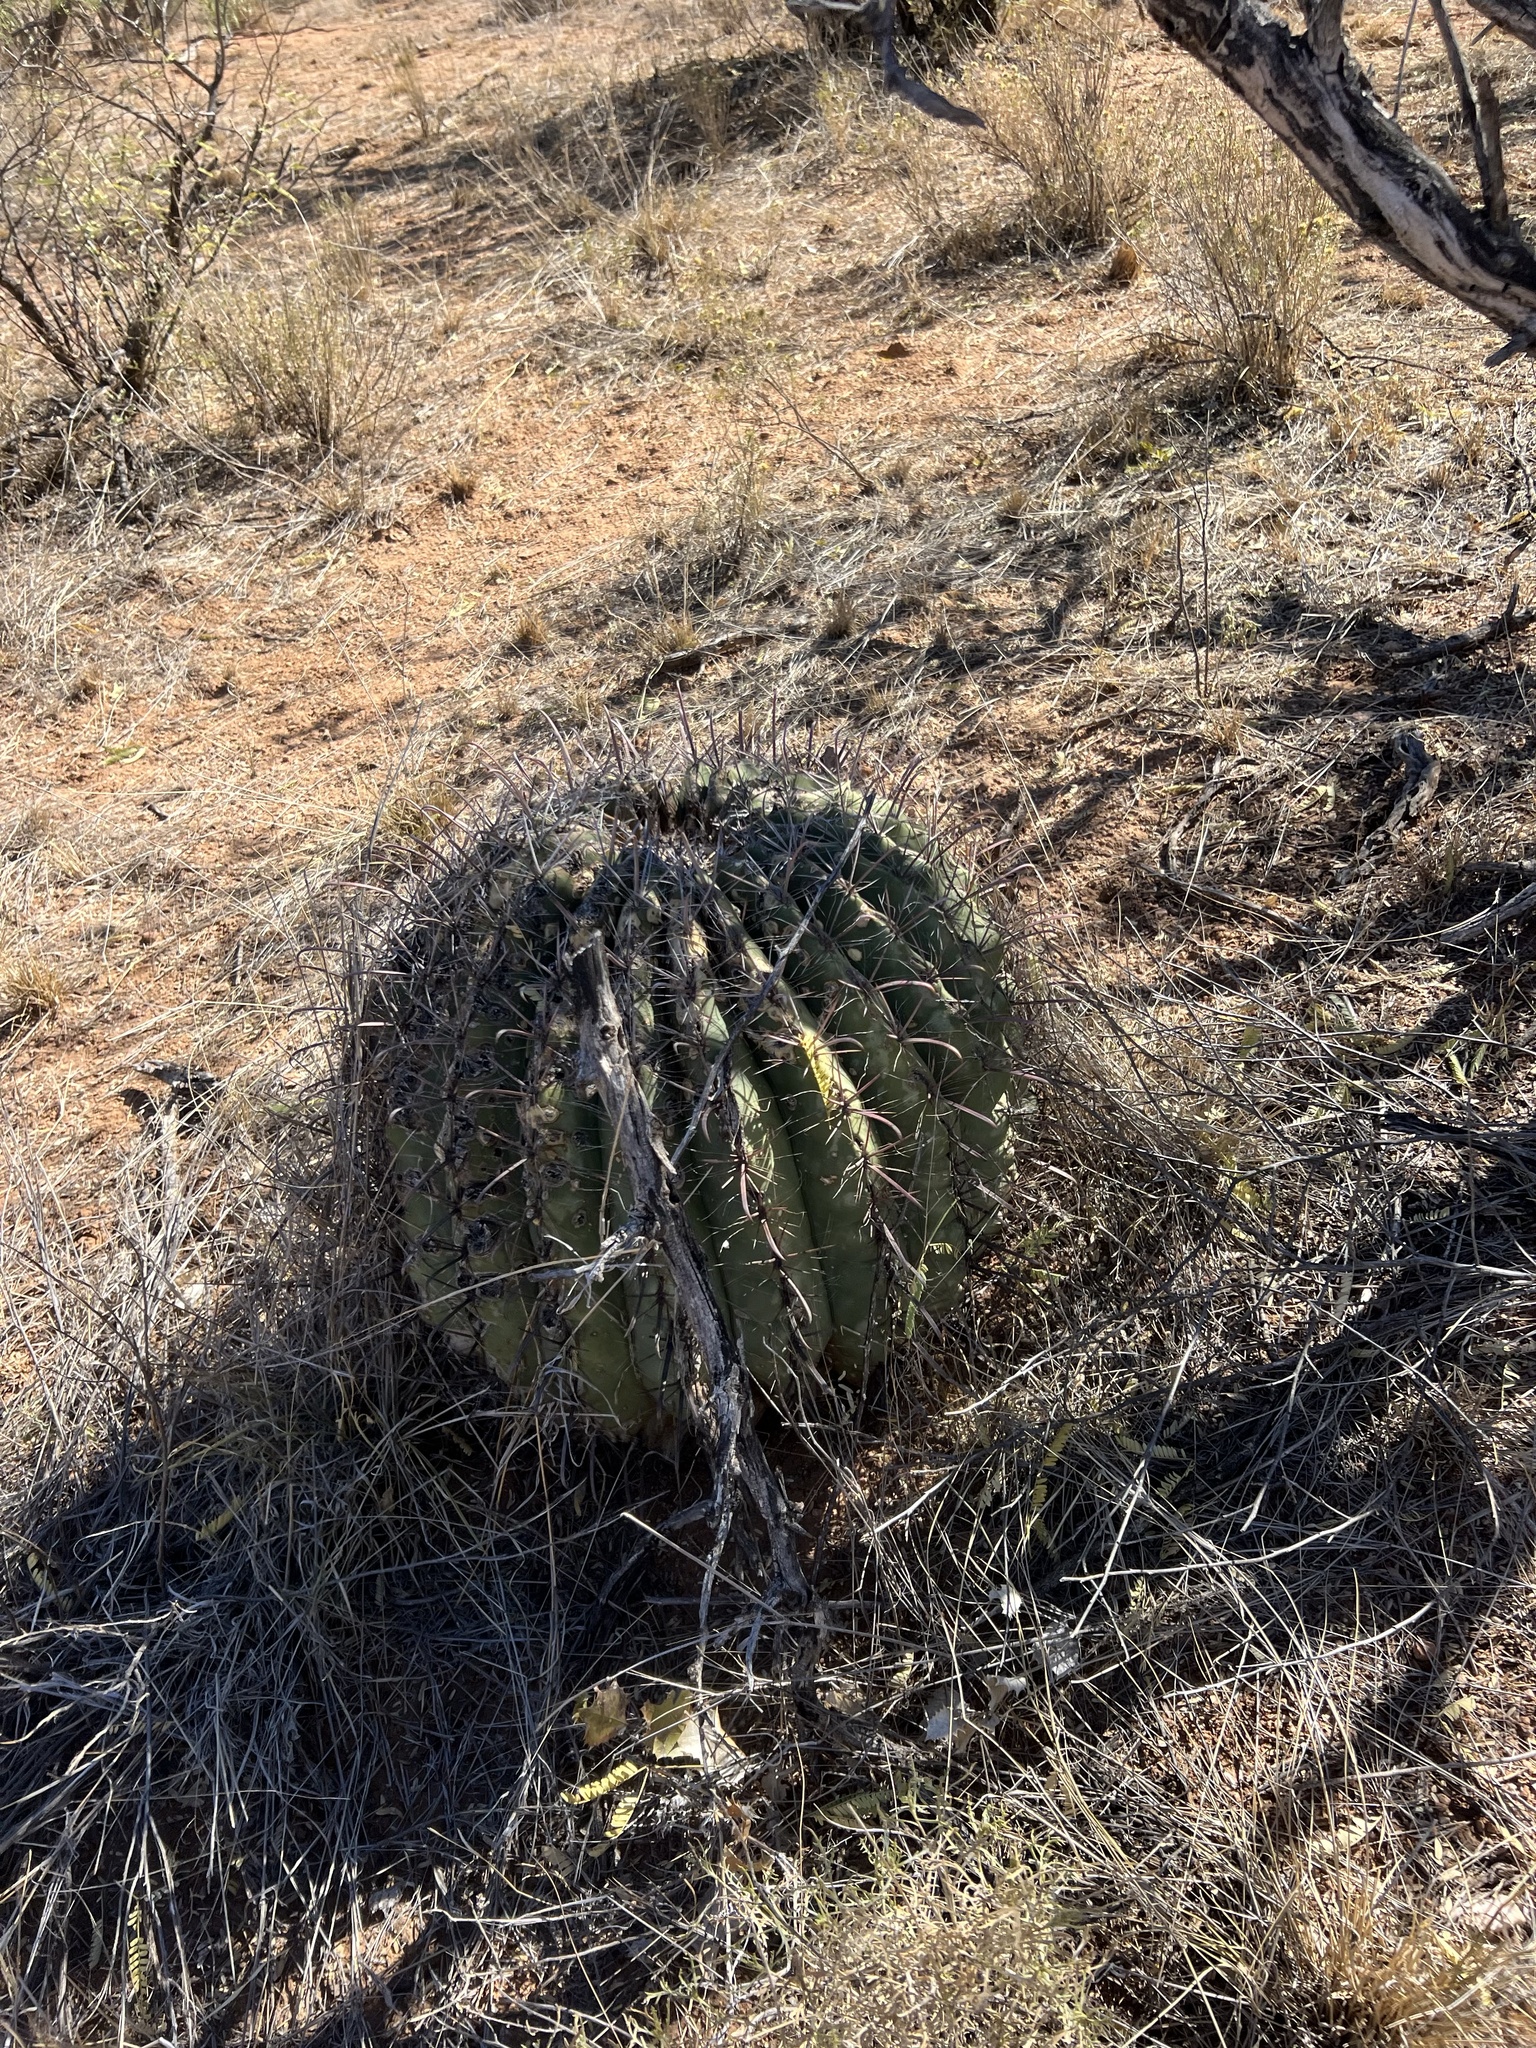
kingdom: Plantae
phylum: Tracheophyta
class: Magnoliopsida
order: Caryophyllales
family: Cactaceae
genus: Ferocactus
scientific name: Ferocactus wislizeni
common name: Candy barrel cactus
